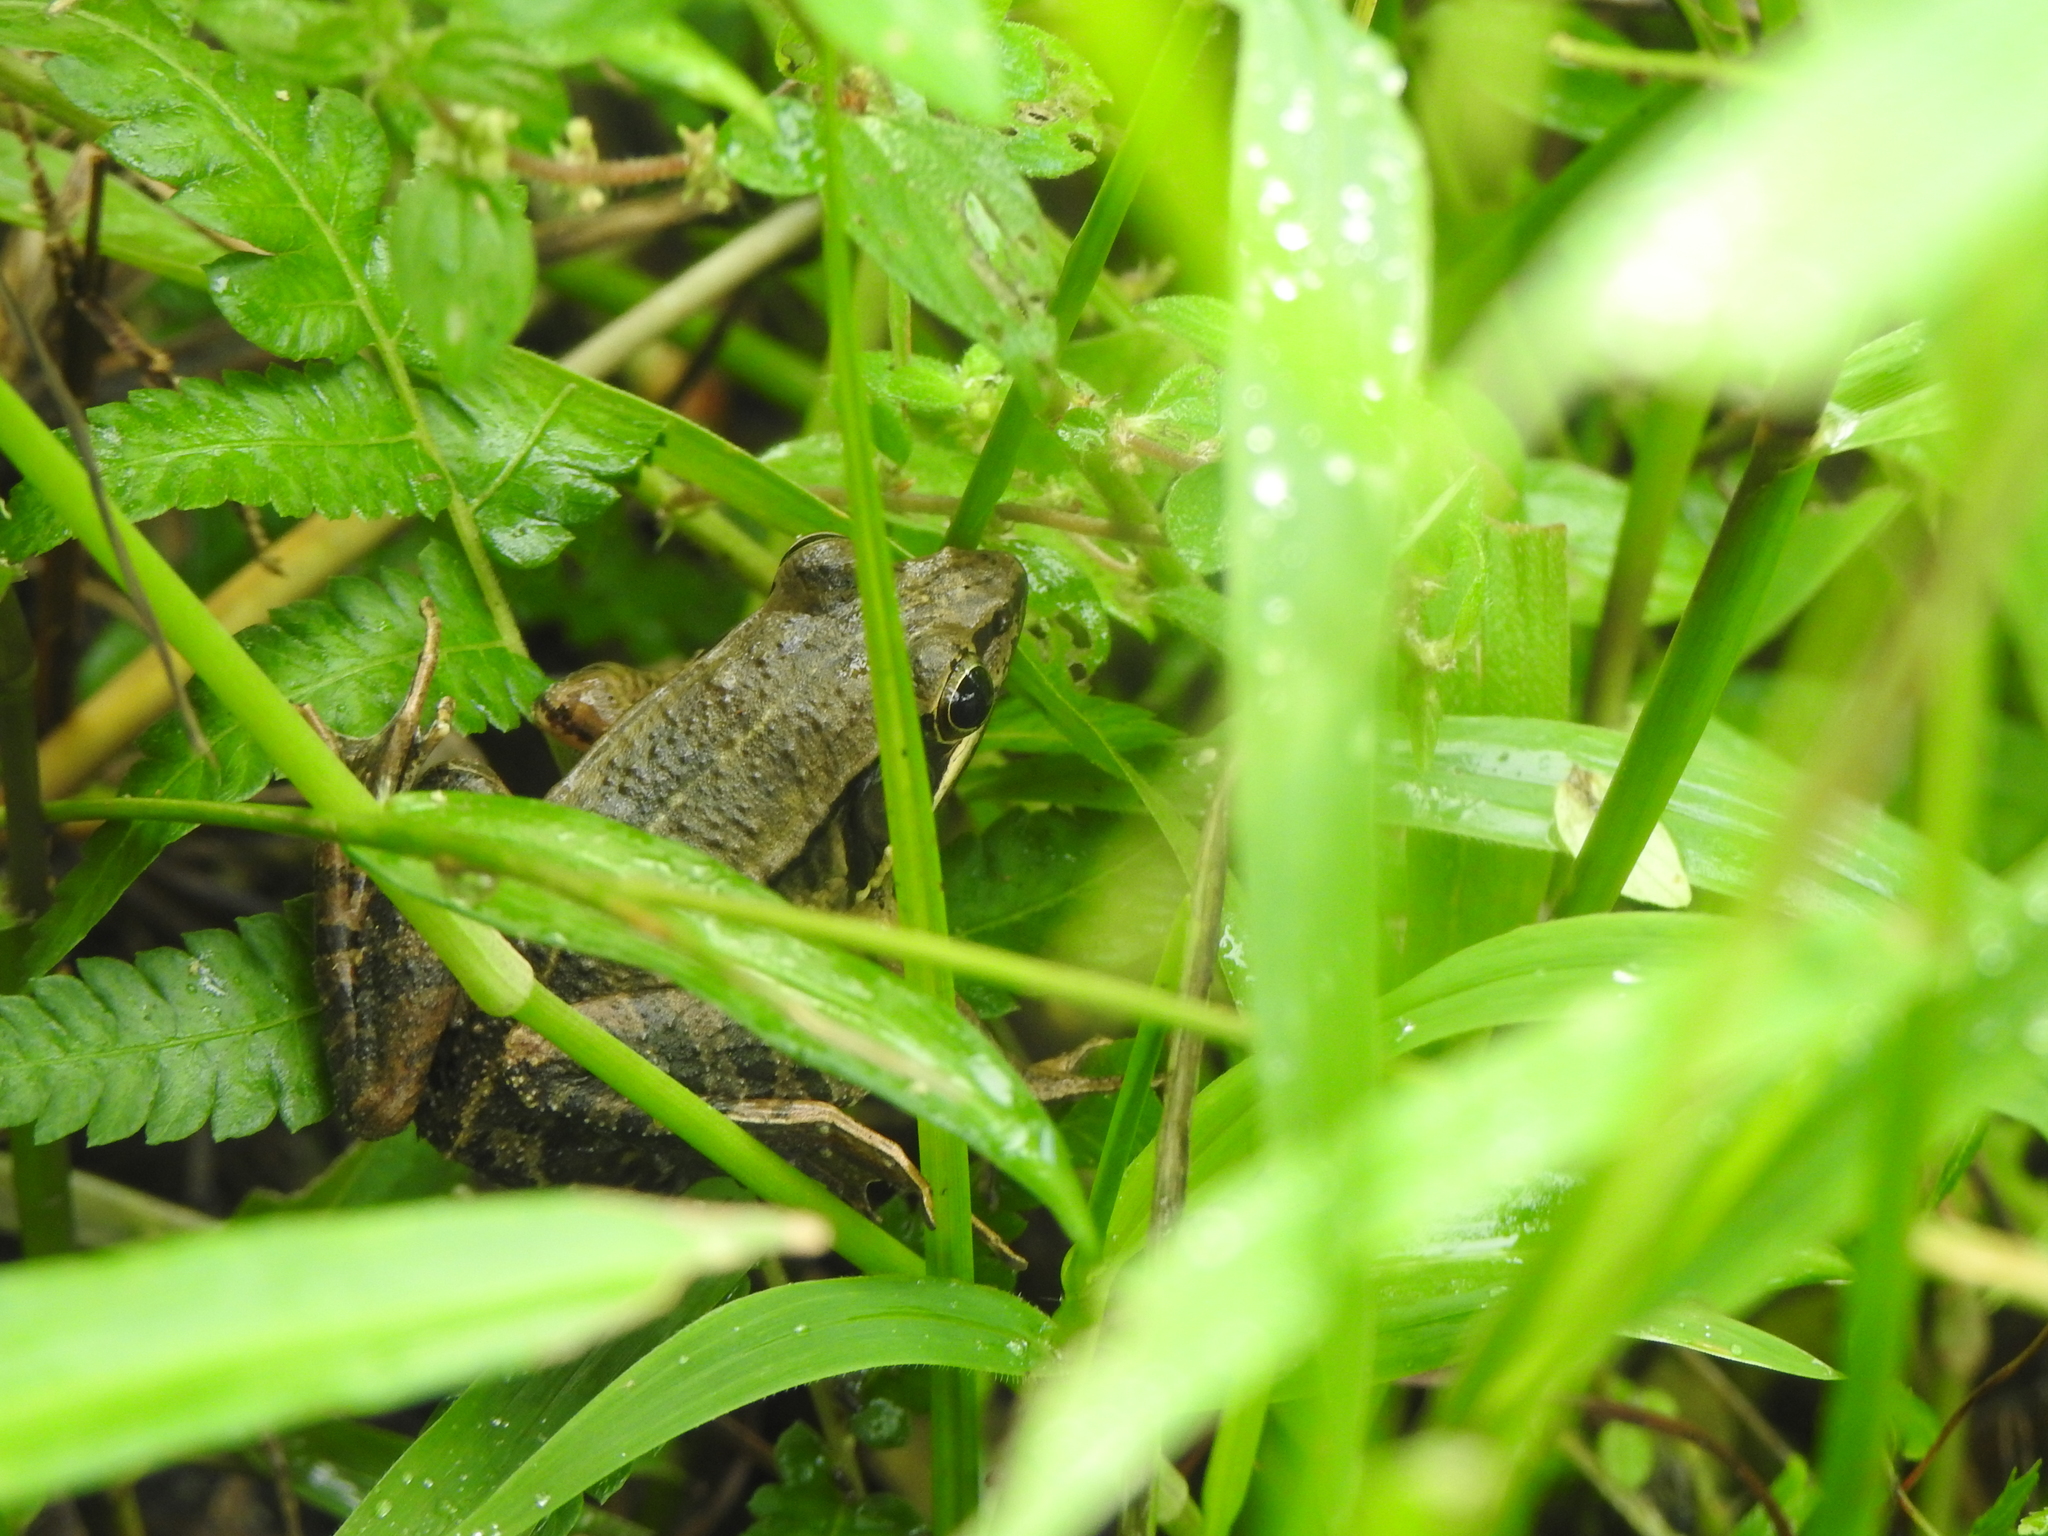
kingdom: Animalia
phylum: Chordata
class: Amphibia
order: Anura
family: Ranidae
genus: Nidirana
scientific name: Nidirana adenopleura
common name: Olive frog
